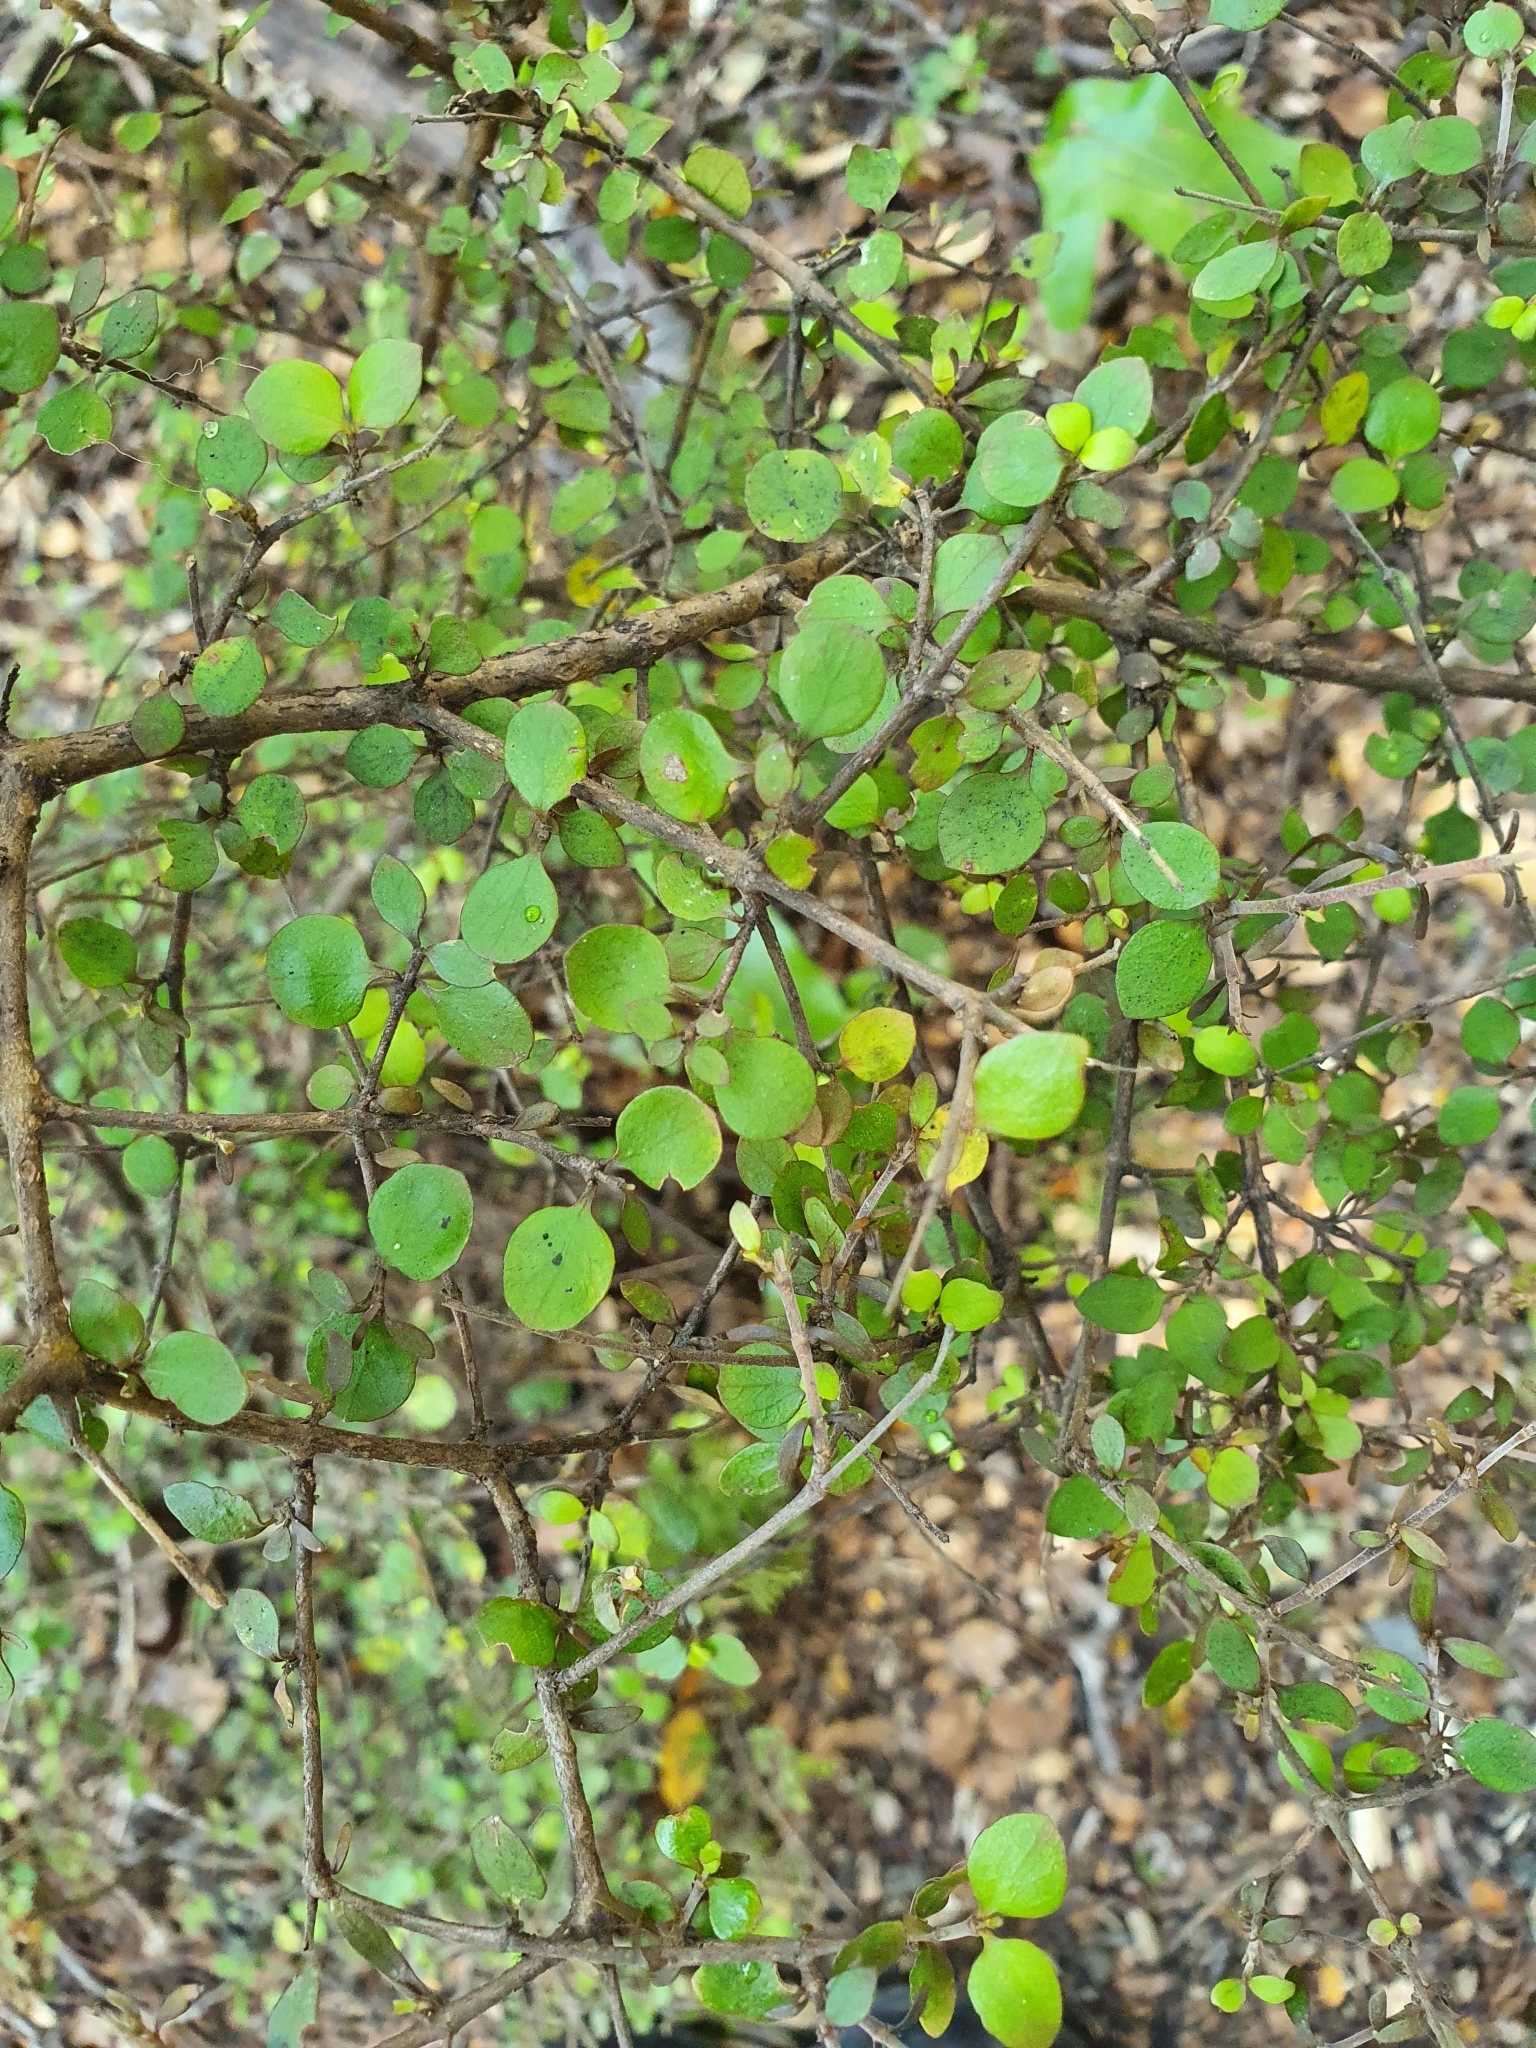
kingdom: Plantae
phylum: Tracheophyta
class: Magnoliopsida
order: Gentianales
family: Rubiaceae
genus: Coprosma
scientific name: Coprosma rhamnoides
